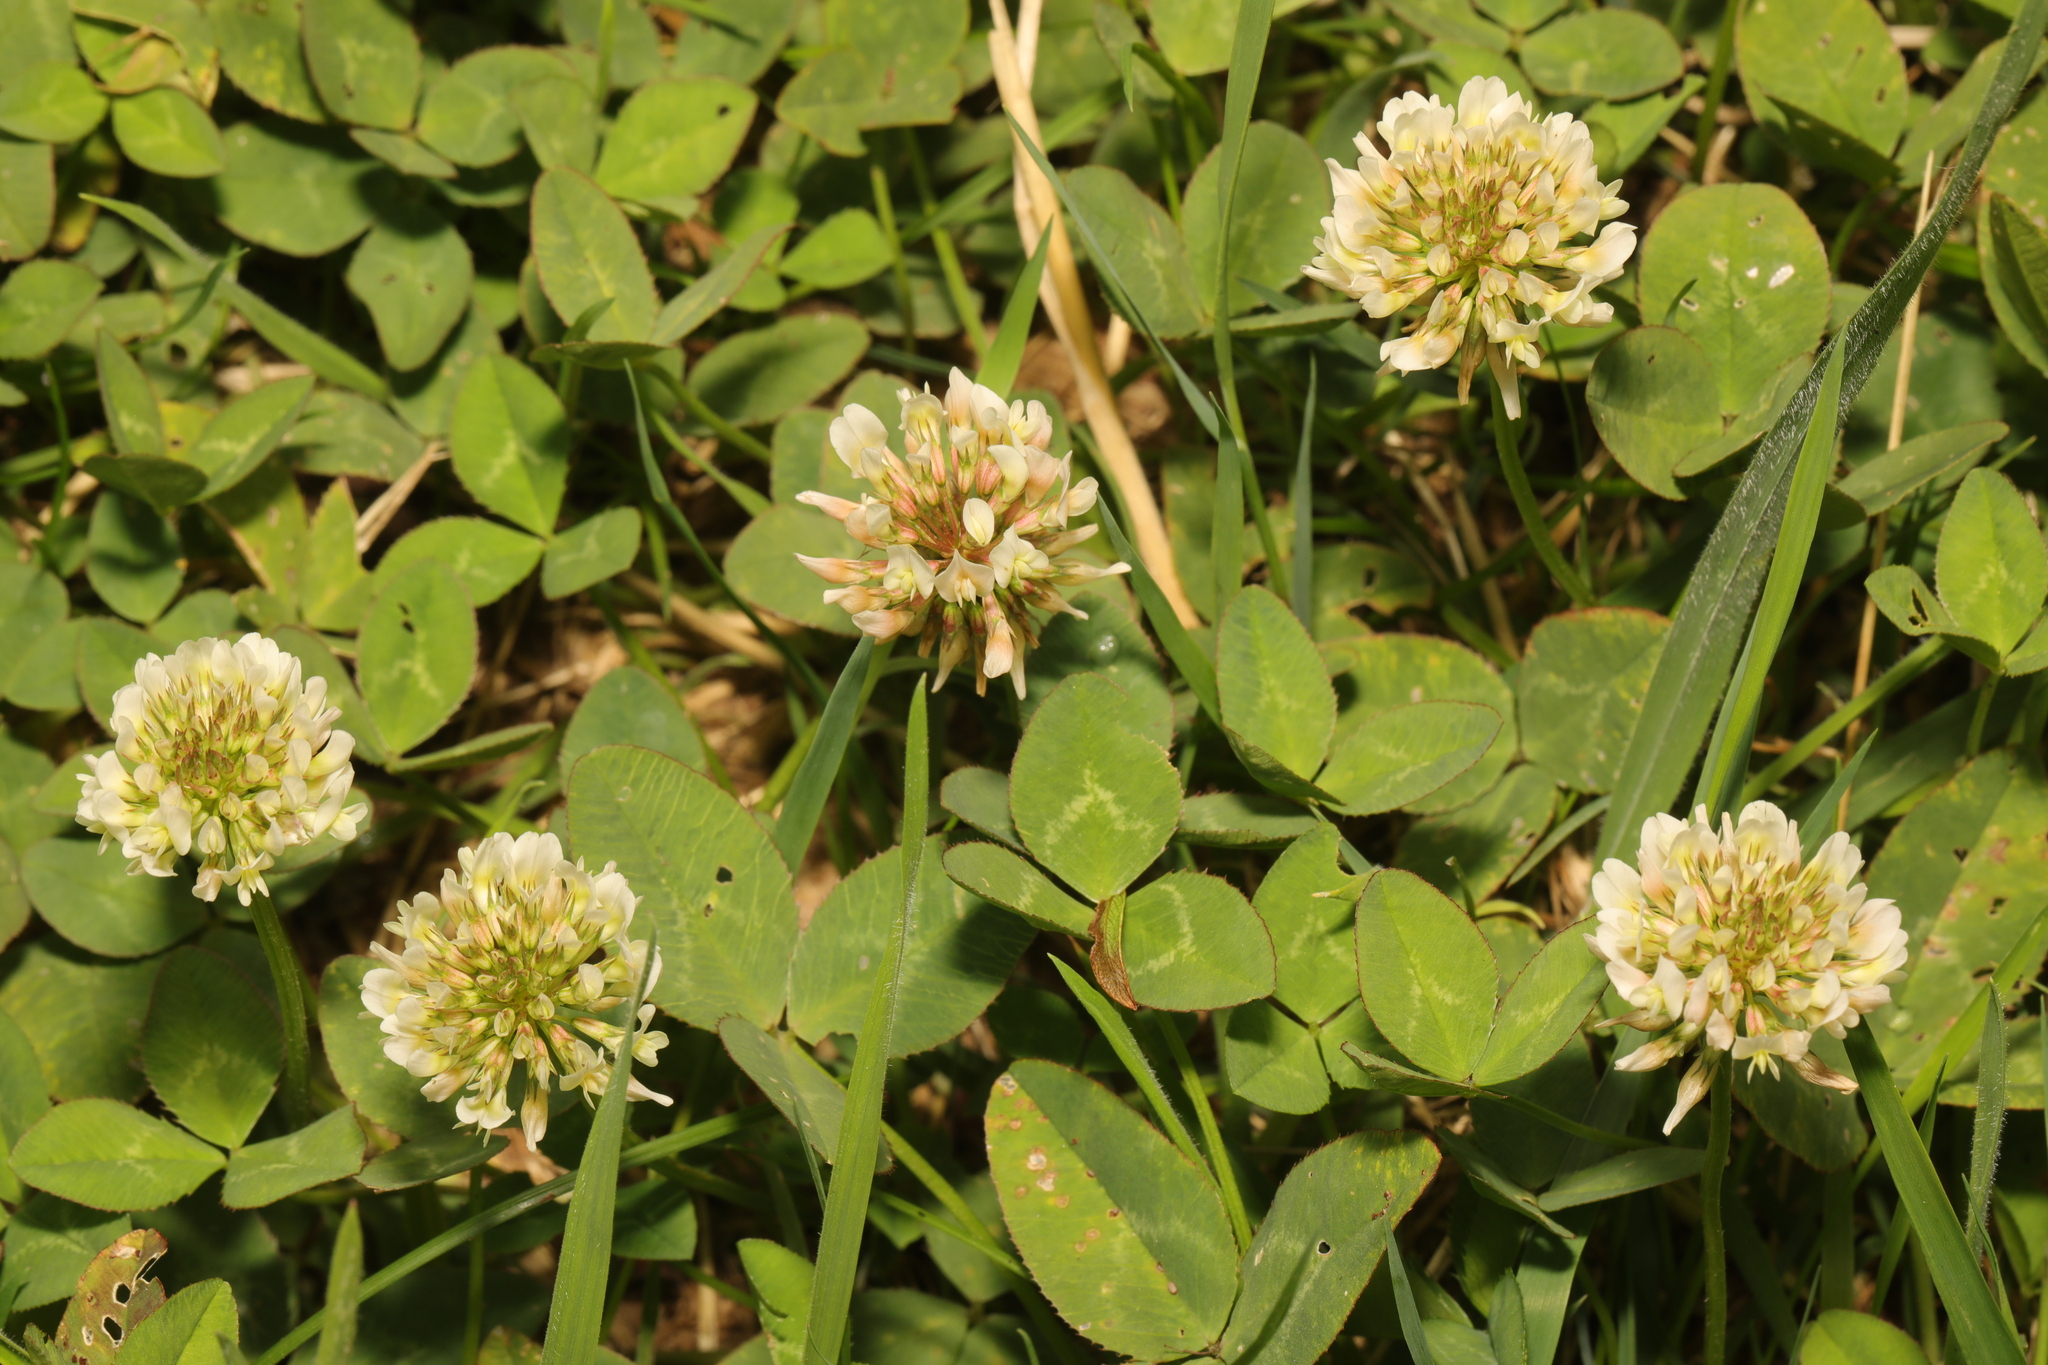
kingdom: Plantae
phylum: Tracheophyta
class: Magnoliopsida
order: Fabales
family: Fabaceae
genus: Trifolium
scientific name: Trifolium repens
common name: White clover
